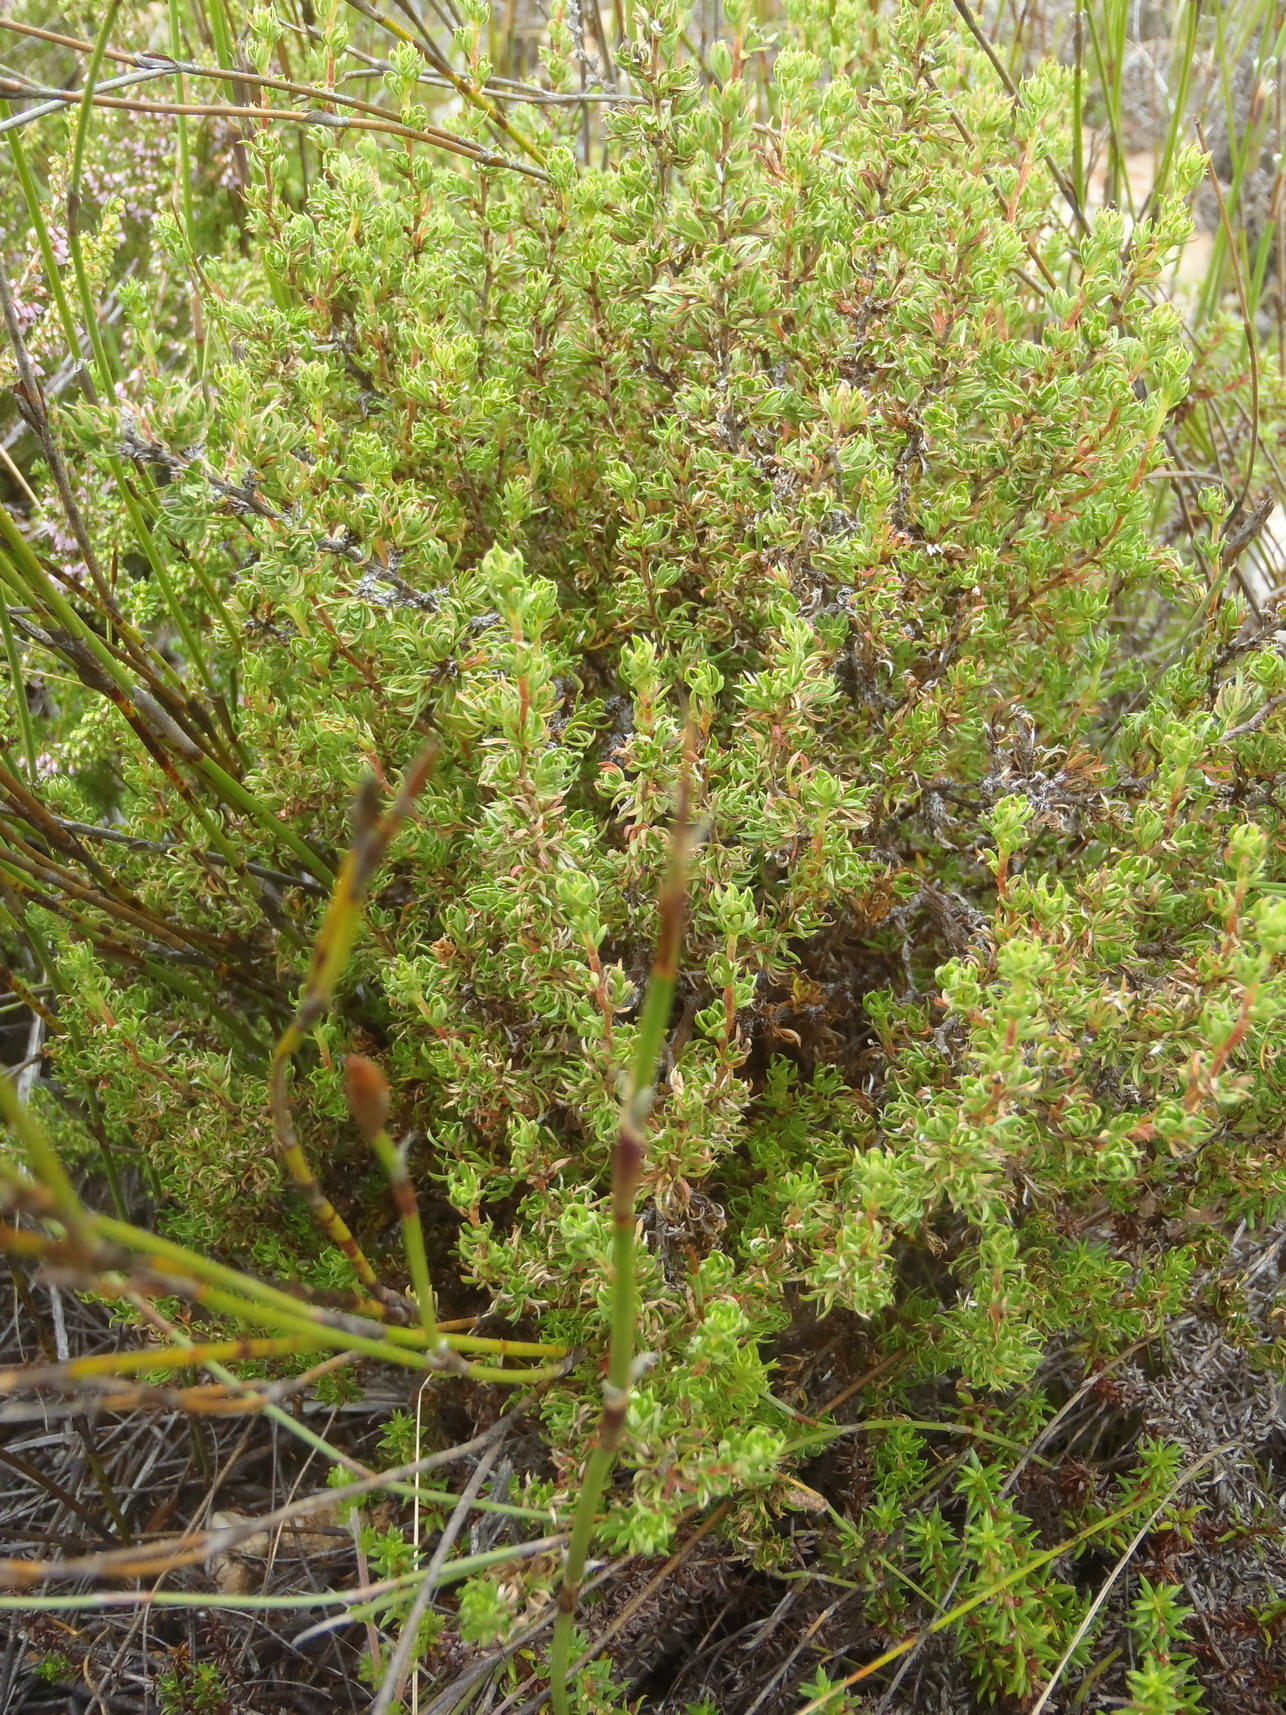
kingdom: Plantae
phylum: Tracheophyta
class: Magnoliopsida
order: Rosales
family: Rosaceae
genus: Cliffortia
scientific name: Cliffortia arcuata
